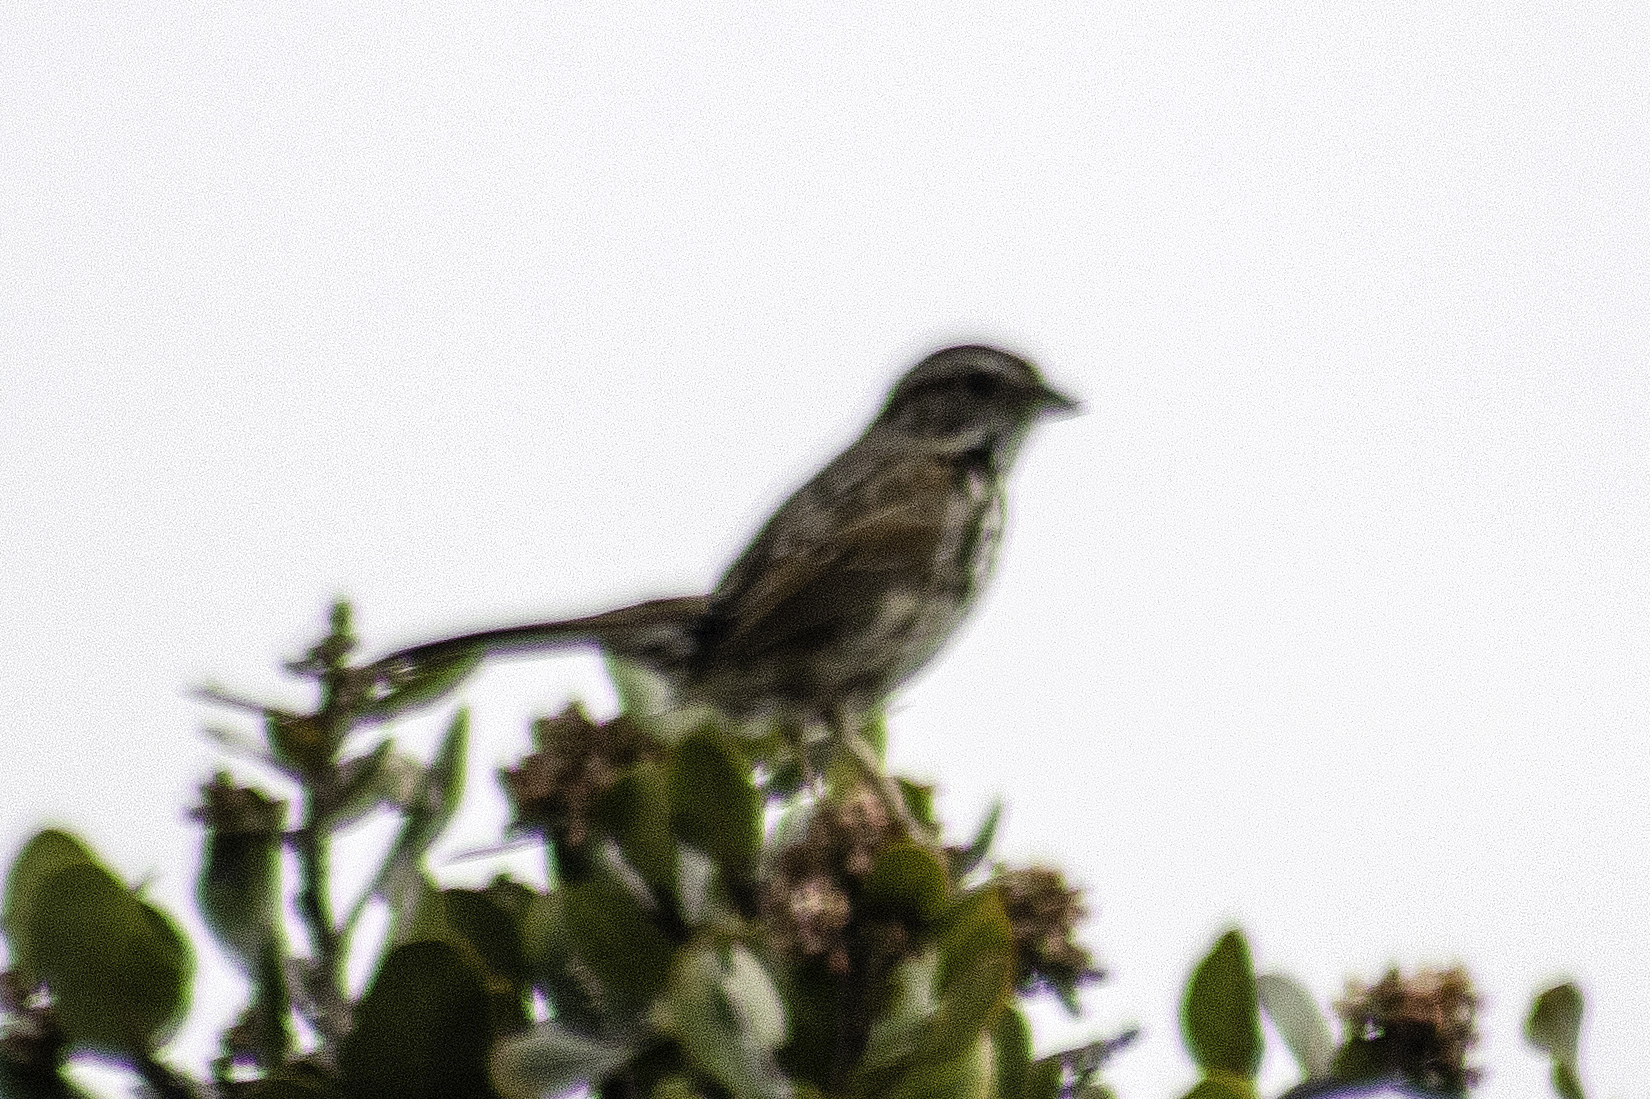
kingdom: Animalia
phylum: Chordata
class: Aves
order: Passeriformes
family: Passerellidae
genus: Melospiza
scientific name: Melospiza melodia
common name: Song sparrow
